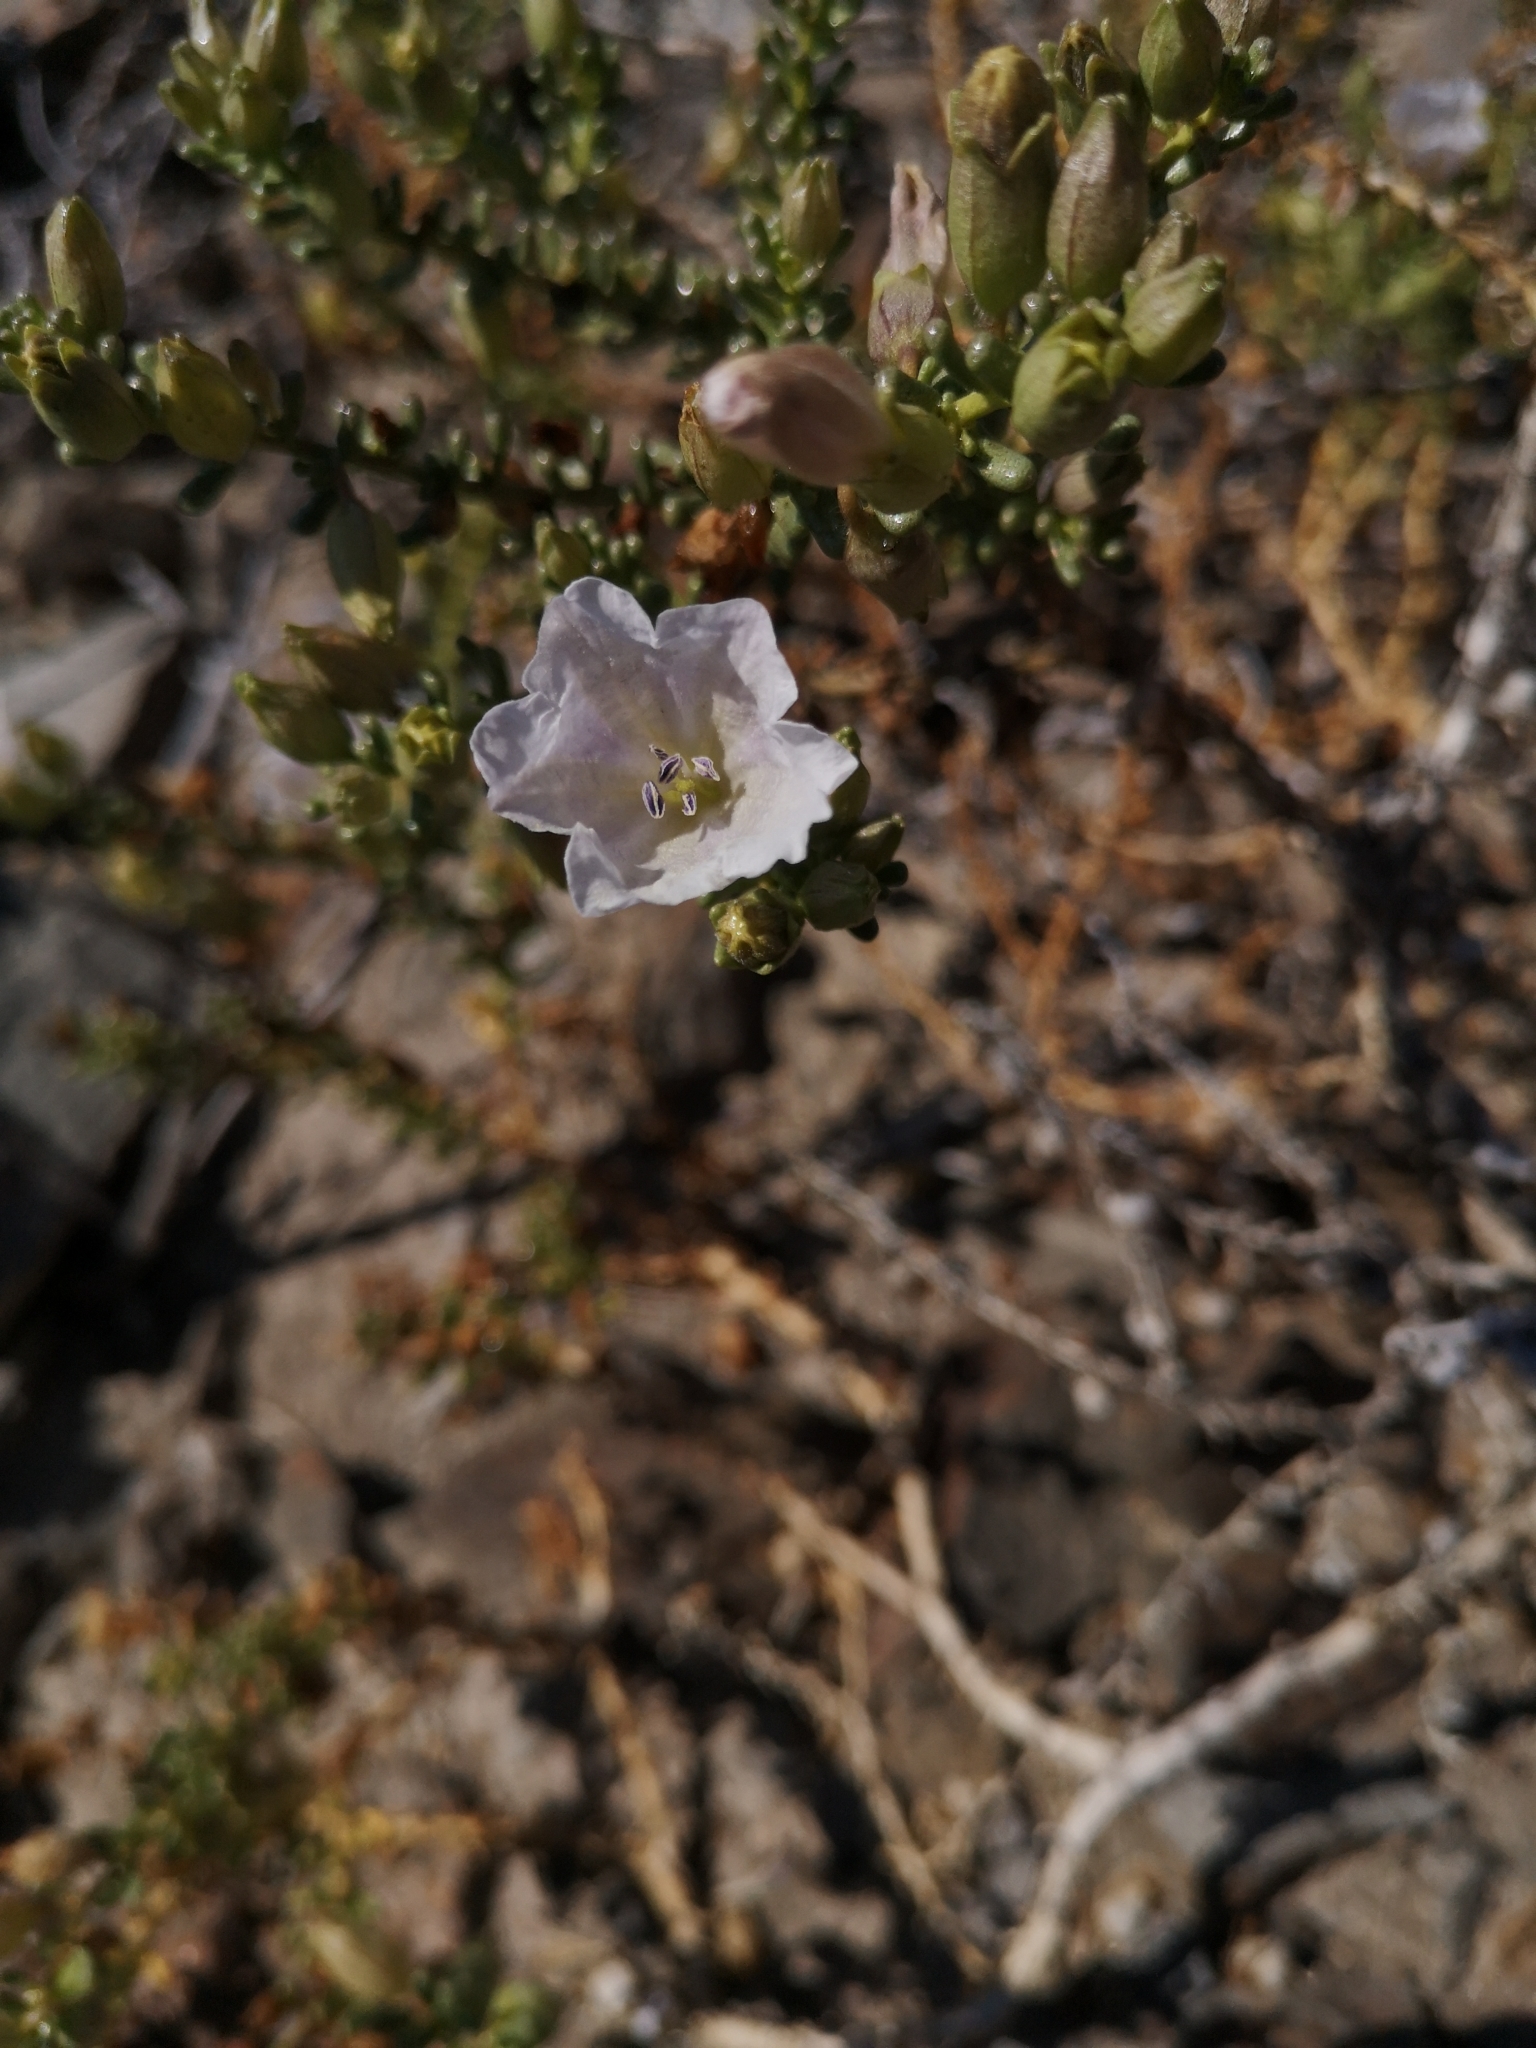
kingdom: Plantae
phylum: Tracheophyta
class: Magnoliopsida
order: Solanales
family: Solanaceae
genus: Nolana
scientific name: Nolana patula
